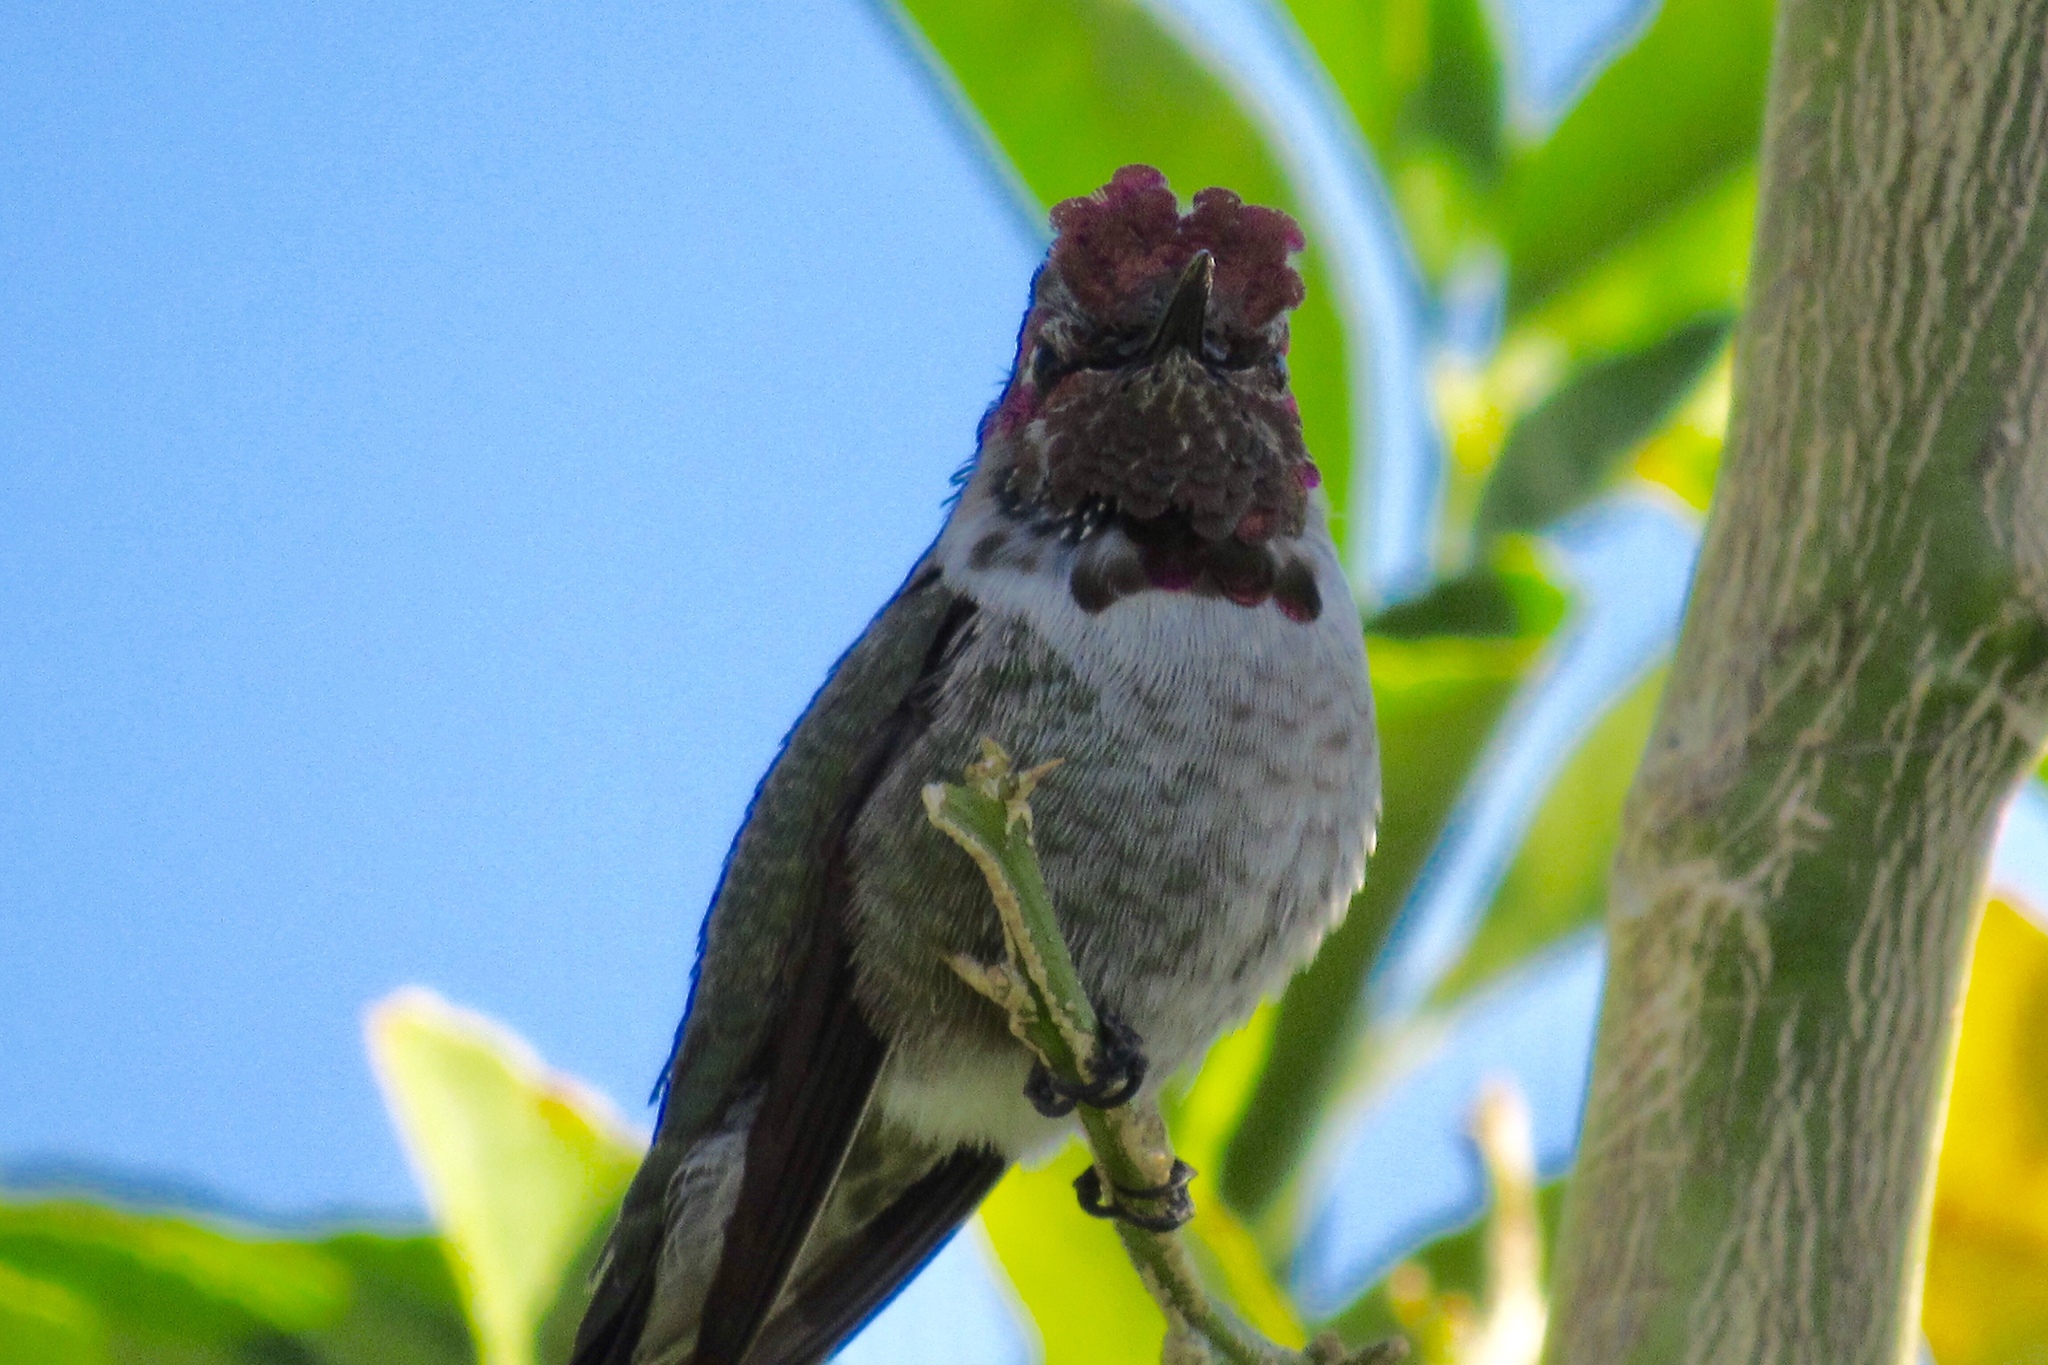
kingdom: Animalia
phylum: Chordata
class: Aves
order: Apodiformes
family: Trochilidae
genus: Calypte
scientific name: Calypte anna
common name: Anna's hummingbird
